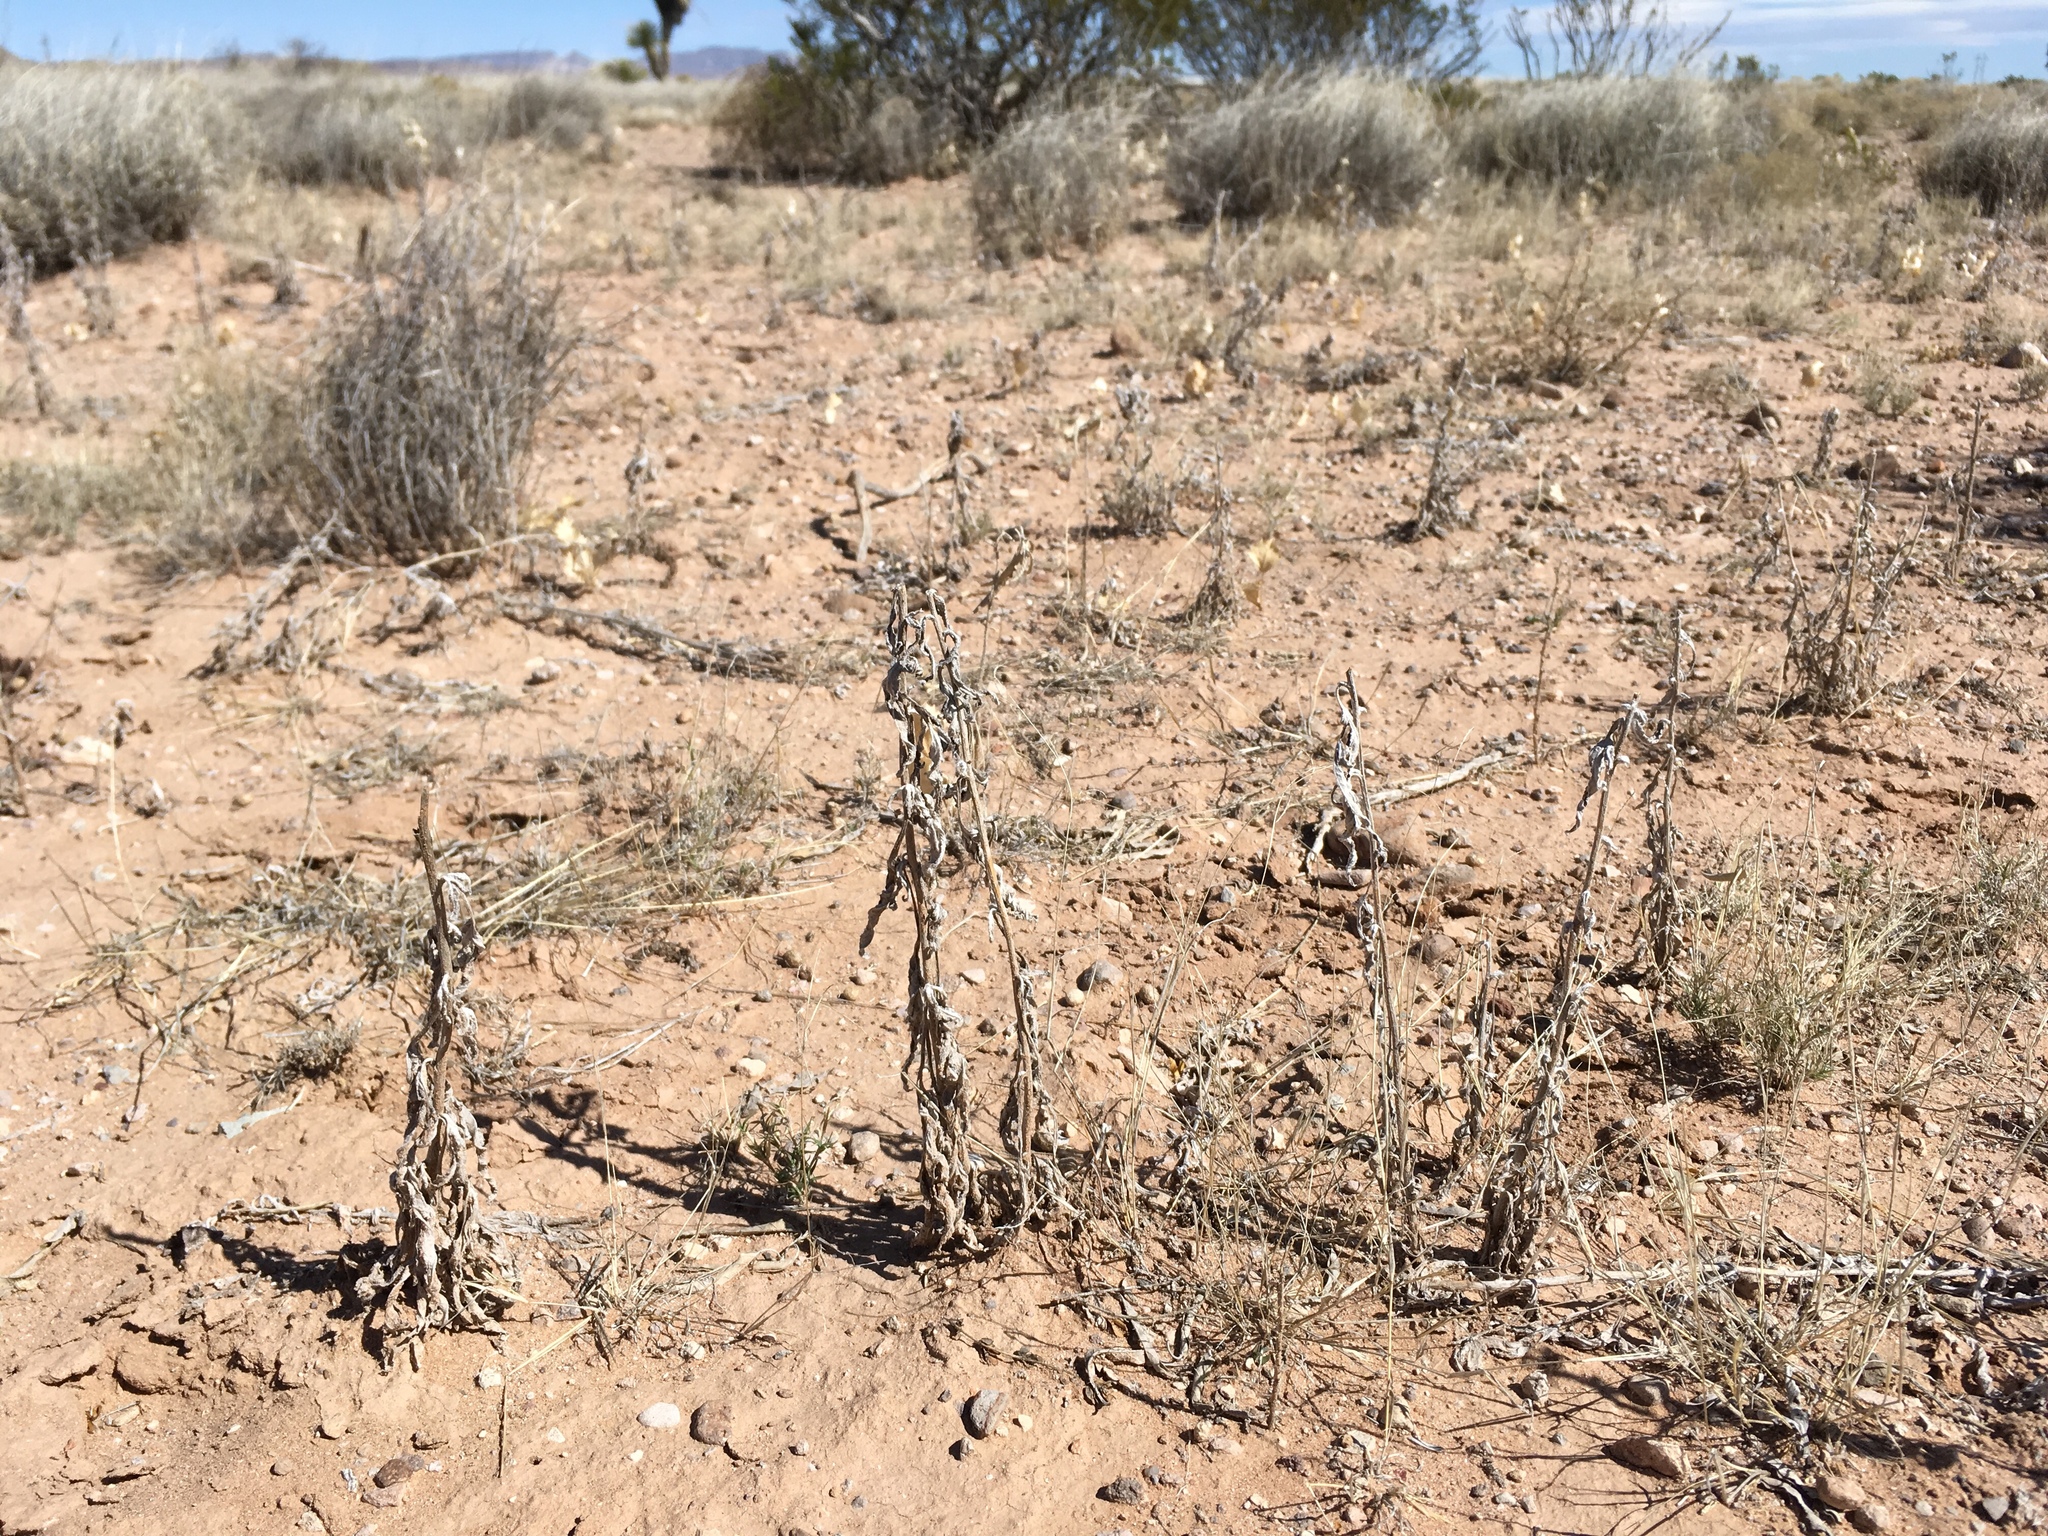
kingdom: Plantae
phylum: Tracheophyta
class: Magnoliopsida
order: Asterales
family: Asteraceae
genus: Euphrosyne
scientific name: Euphrosyne dealbata
